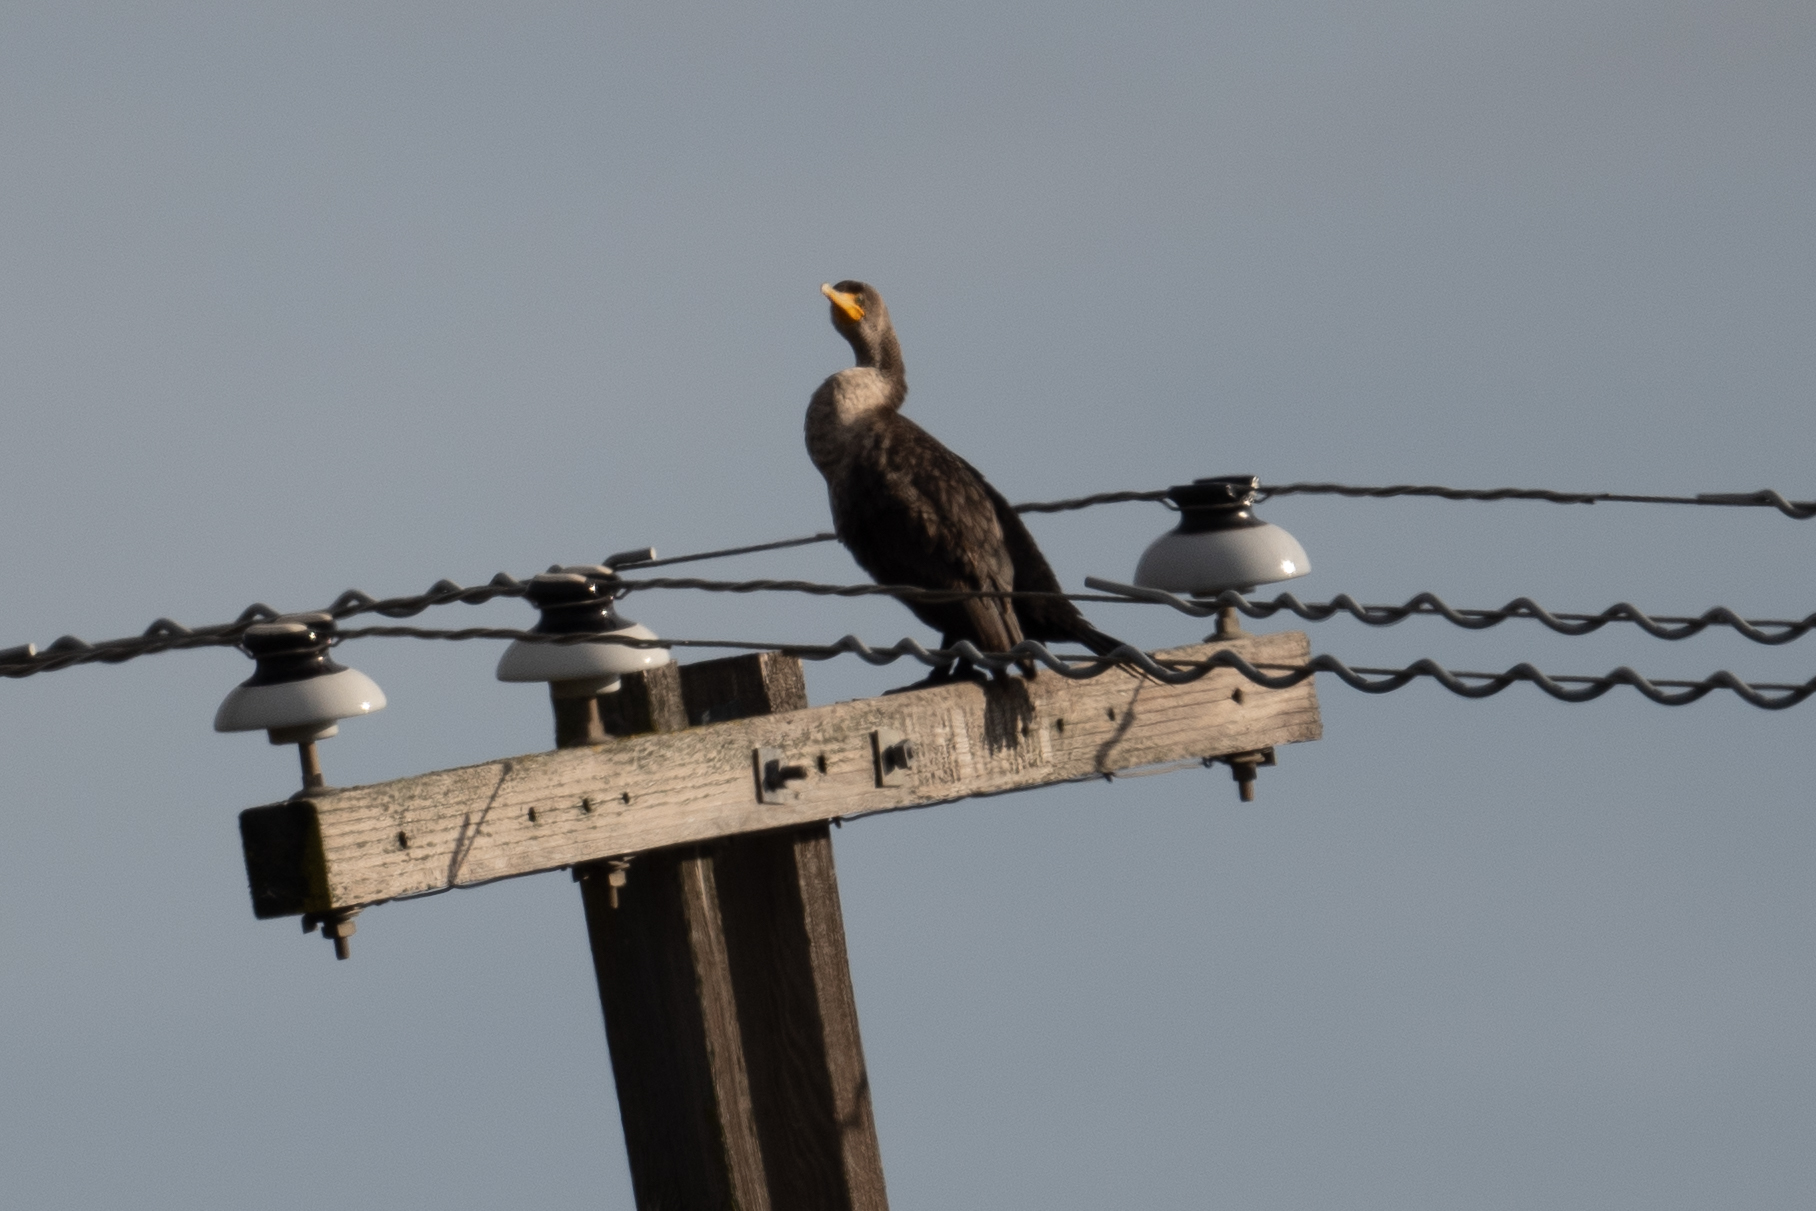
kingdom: Animalia
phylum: Chordata
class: Aves
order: Suliformes
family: Phalacrocoracidae
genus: Phalacrocorax
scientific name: Phalacrocorax auritus
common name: Double-crested cormorant
